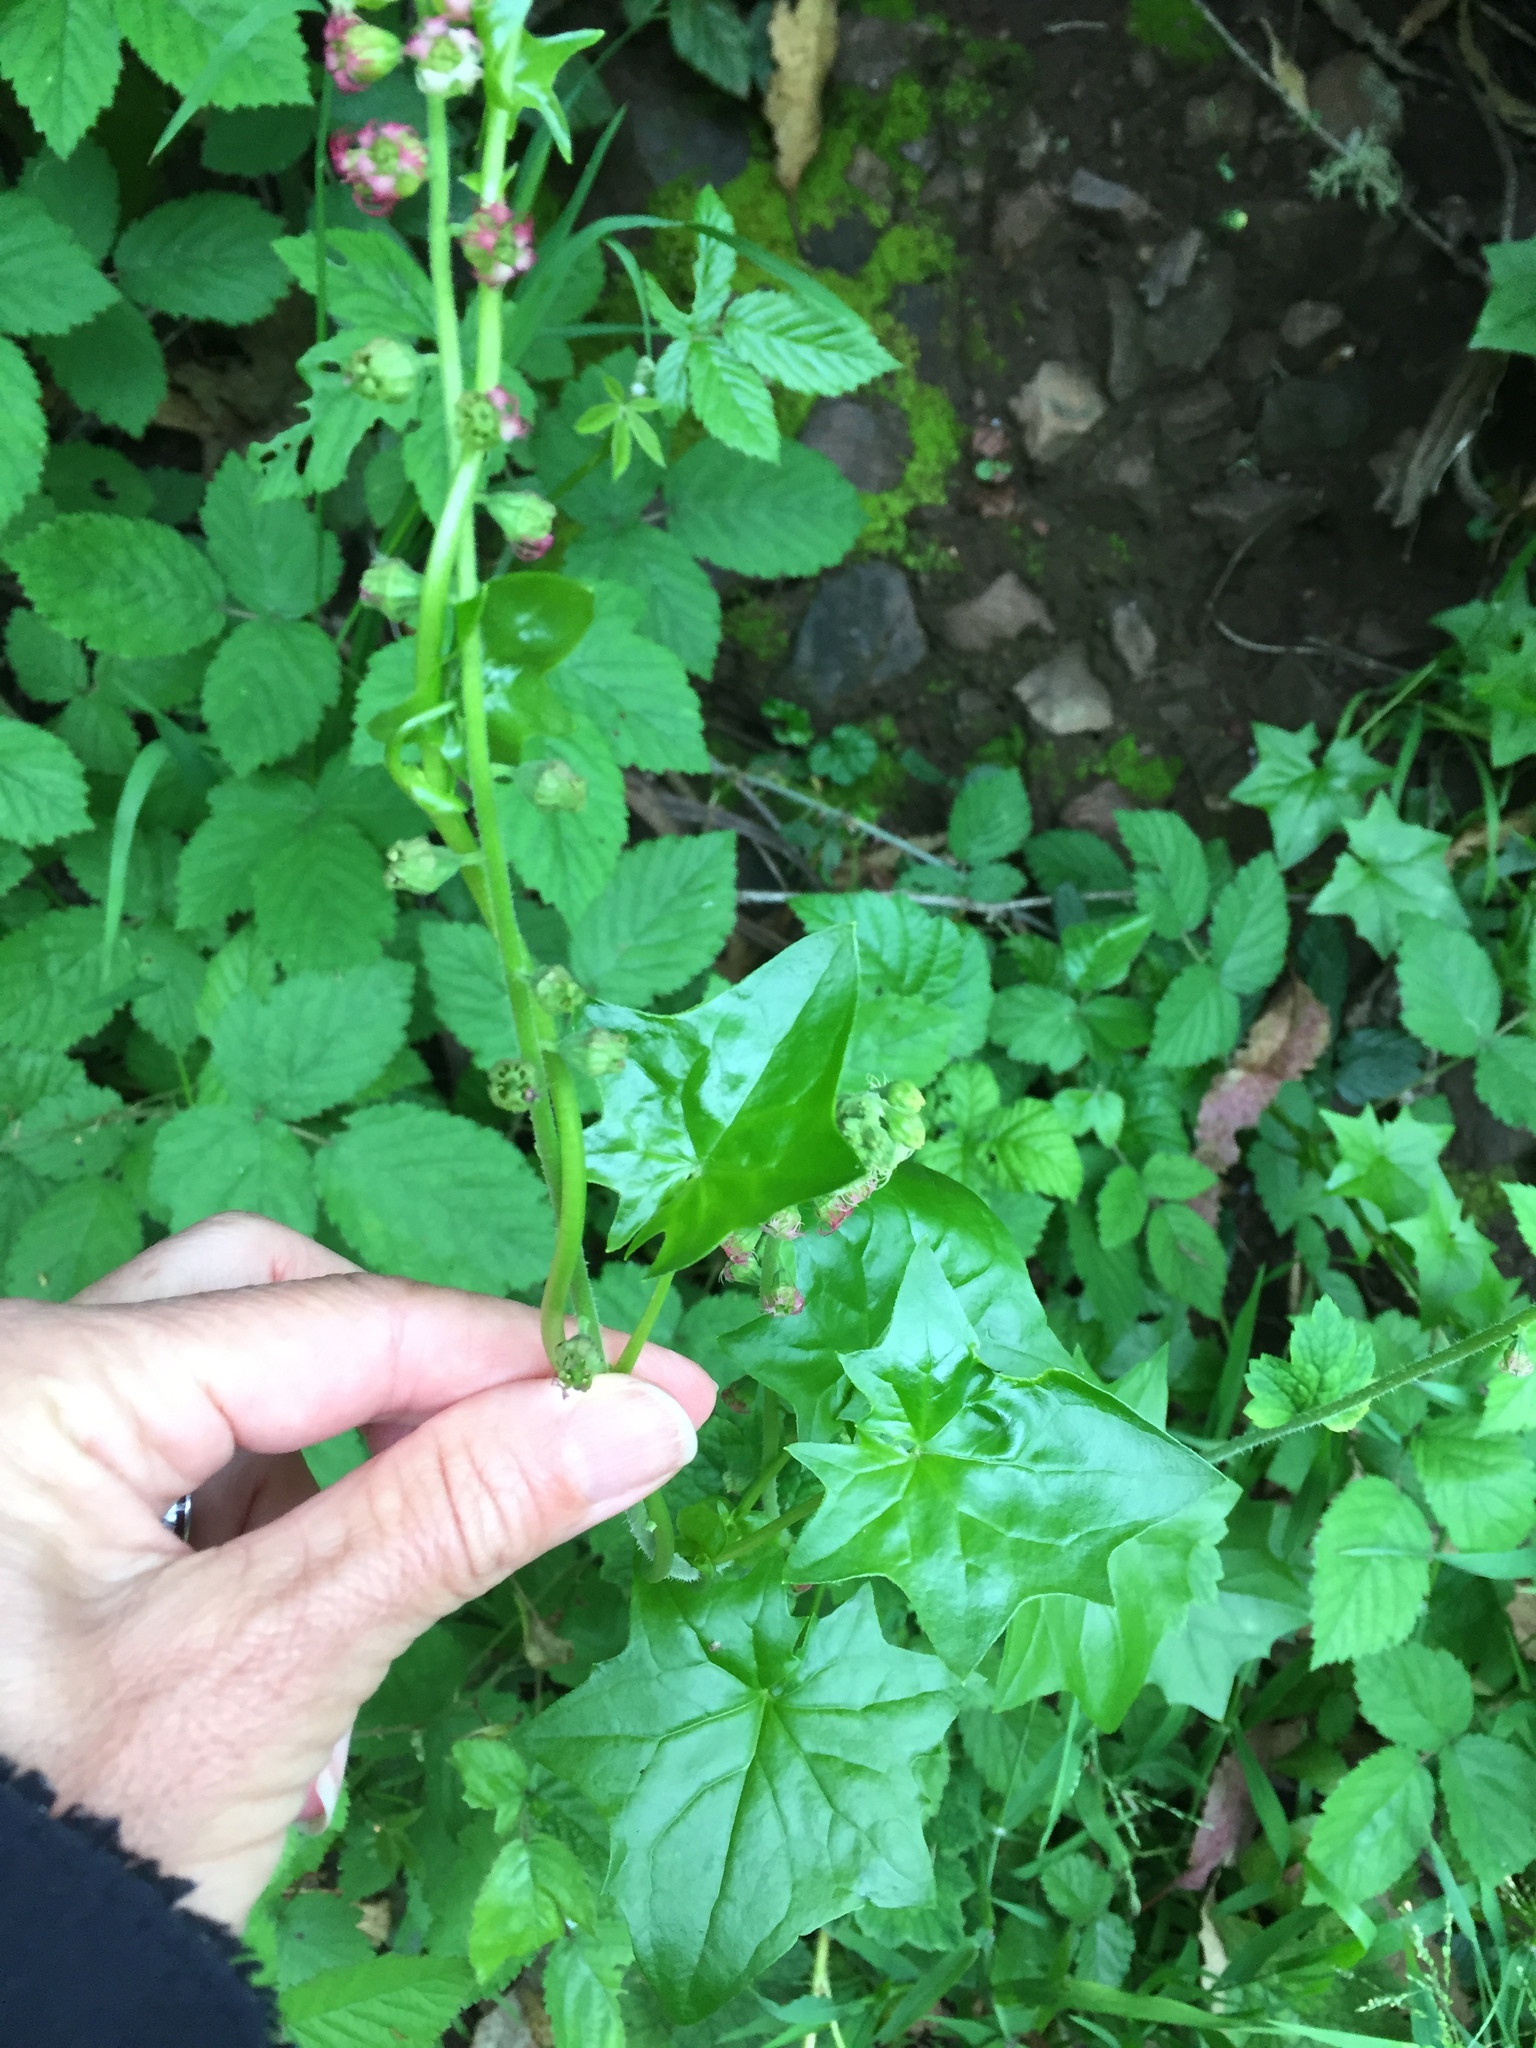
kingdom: Plantae
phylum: Tracheophyta
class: Magnoliopsida
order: Saxifragales
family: Saxifragaceae
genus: Tellima
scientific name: Tellima grandiflora
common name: Fringecups
